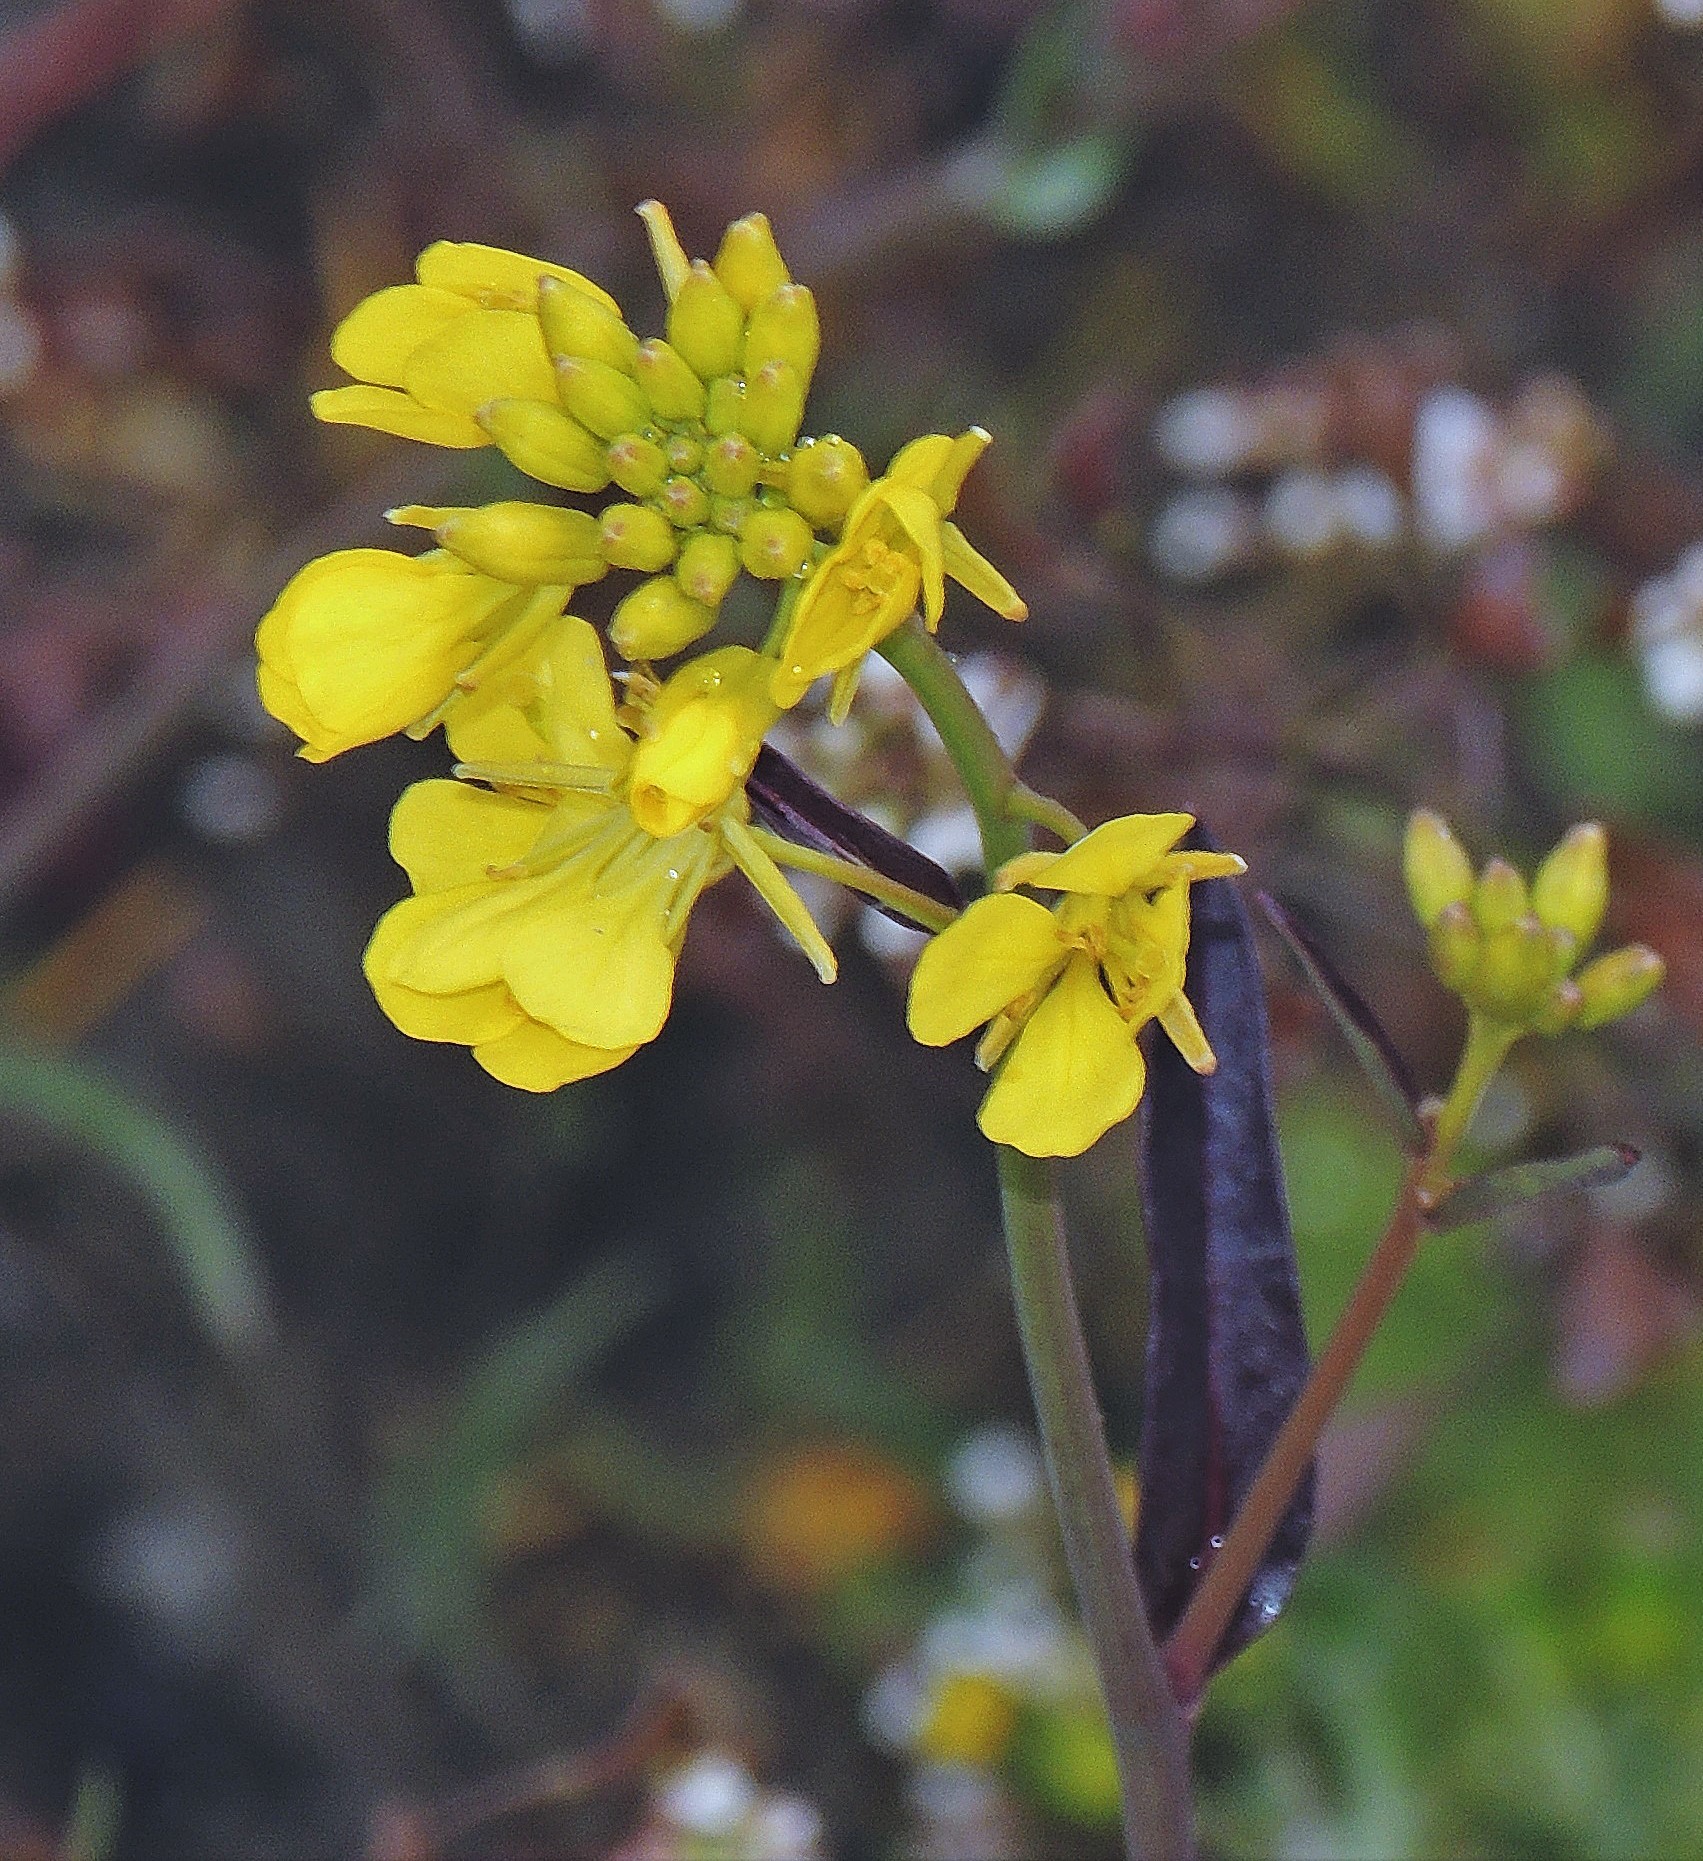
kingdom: Plantae
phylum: Tracheophyta
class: Magnoliopsida
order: Brassicales
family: Brassicaceae
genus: Brassica
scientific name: Brassica rapa
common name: Field mustard
